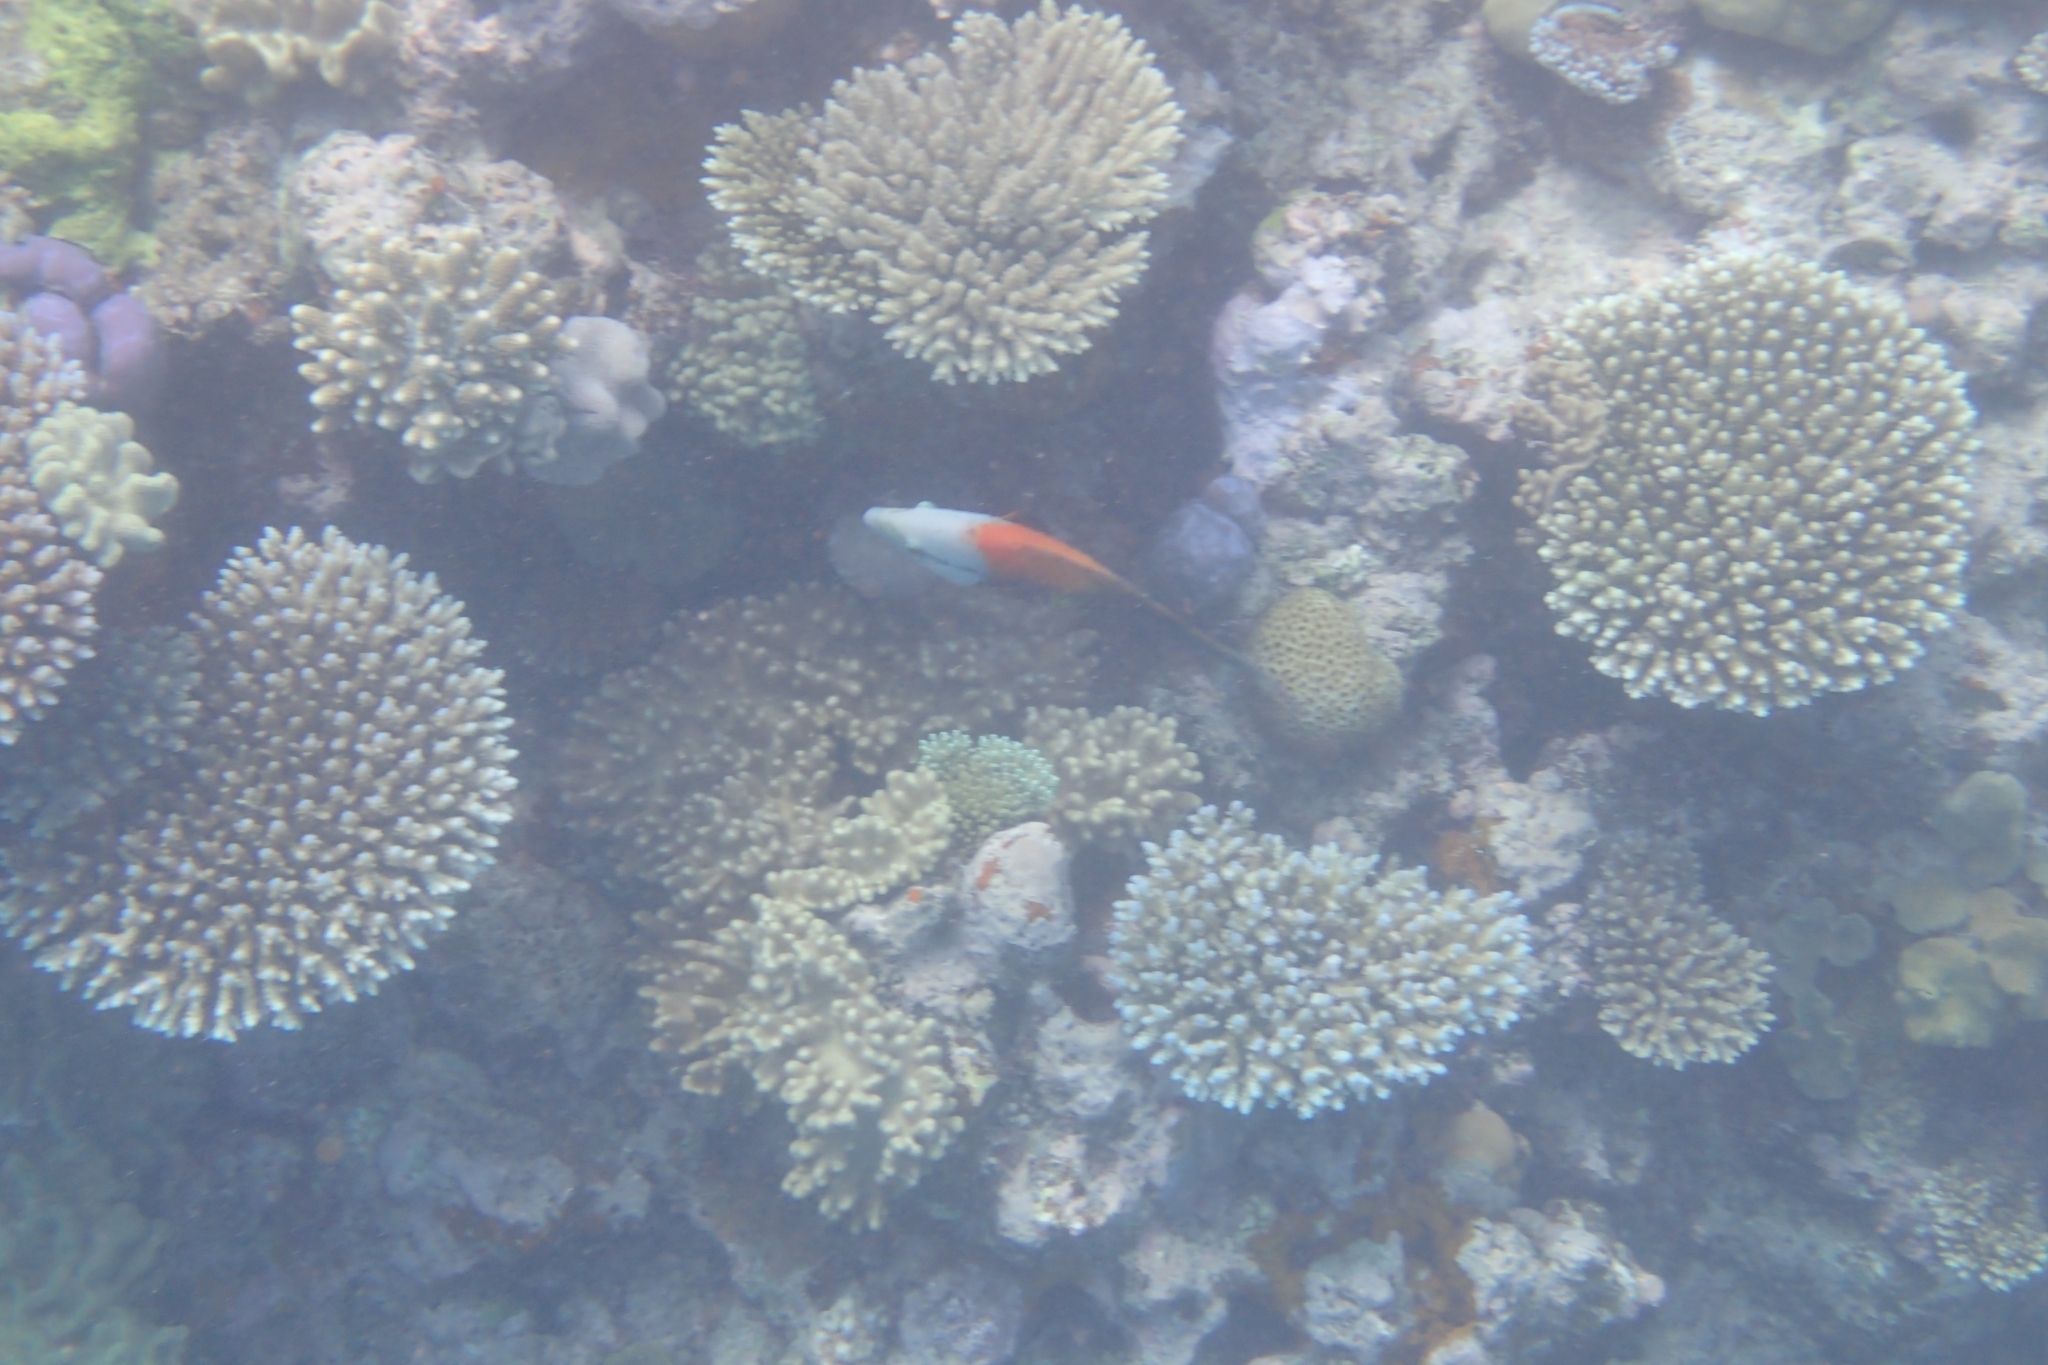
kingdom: Animalia
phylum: Chordata
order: Perciformes
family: Labridae
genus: Epibulus
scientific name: Epibulus insidiator
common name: Slingjaw wrasse
